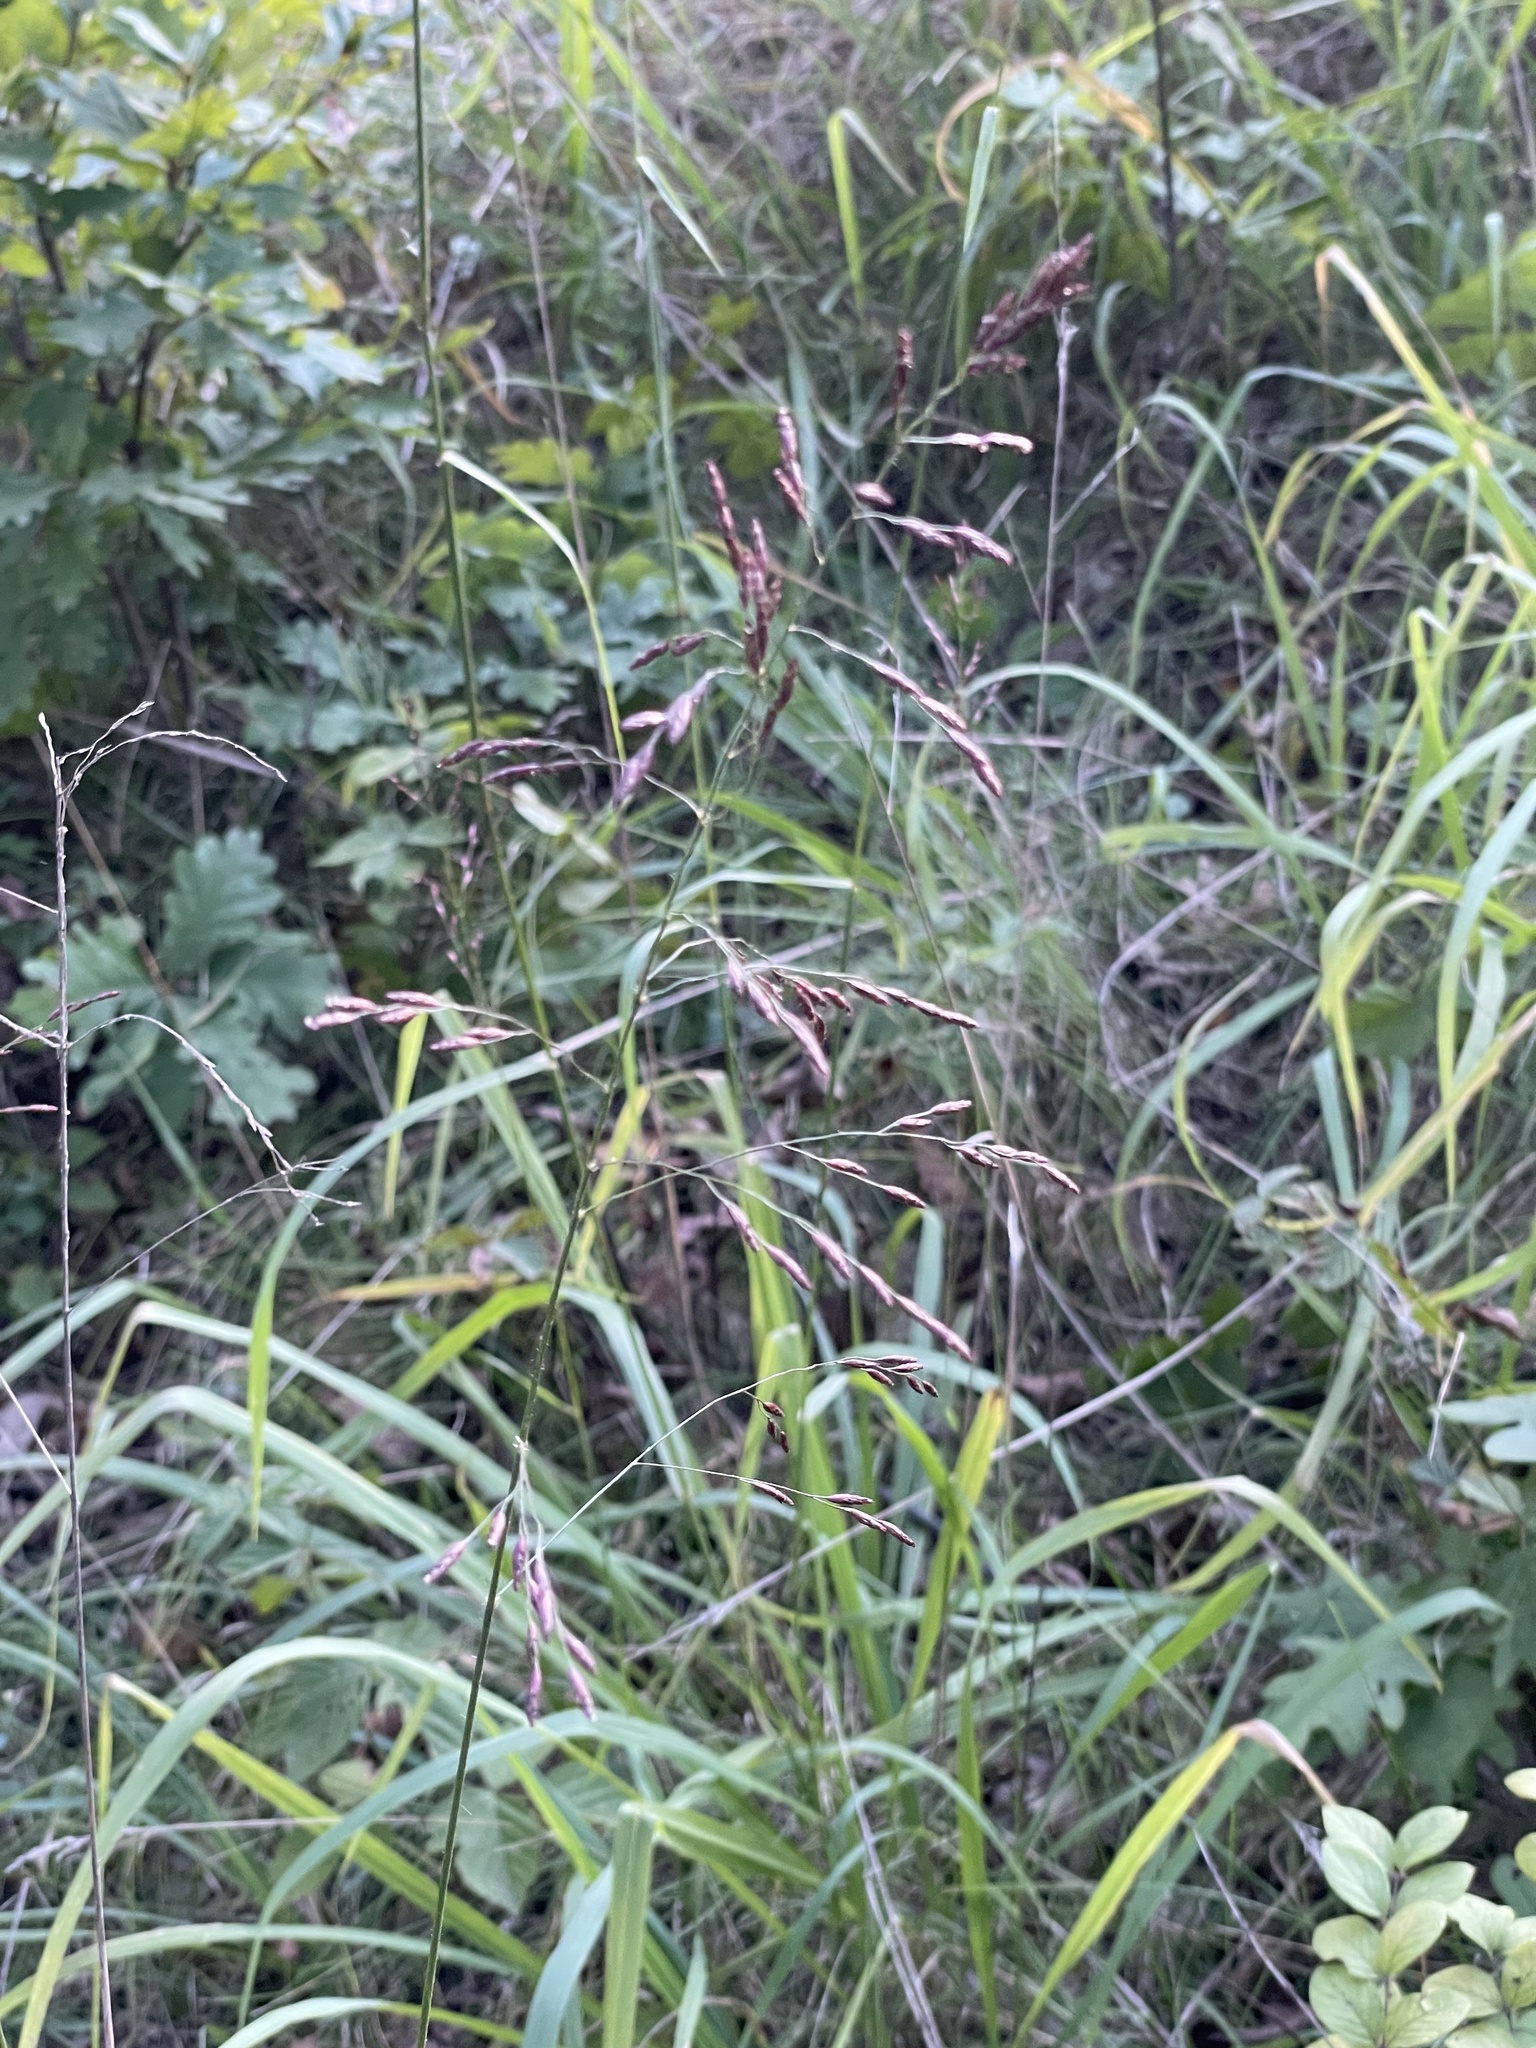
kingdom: Plantae
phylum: Tracheophyta
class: Liliopsida
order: Poales
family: Poaceae
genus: Tridens
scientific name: Tridens flavus
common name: Purpletop
